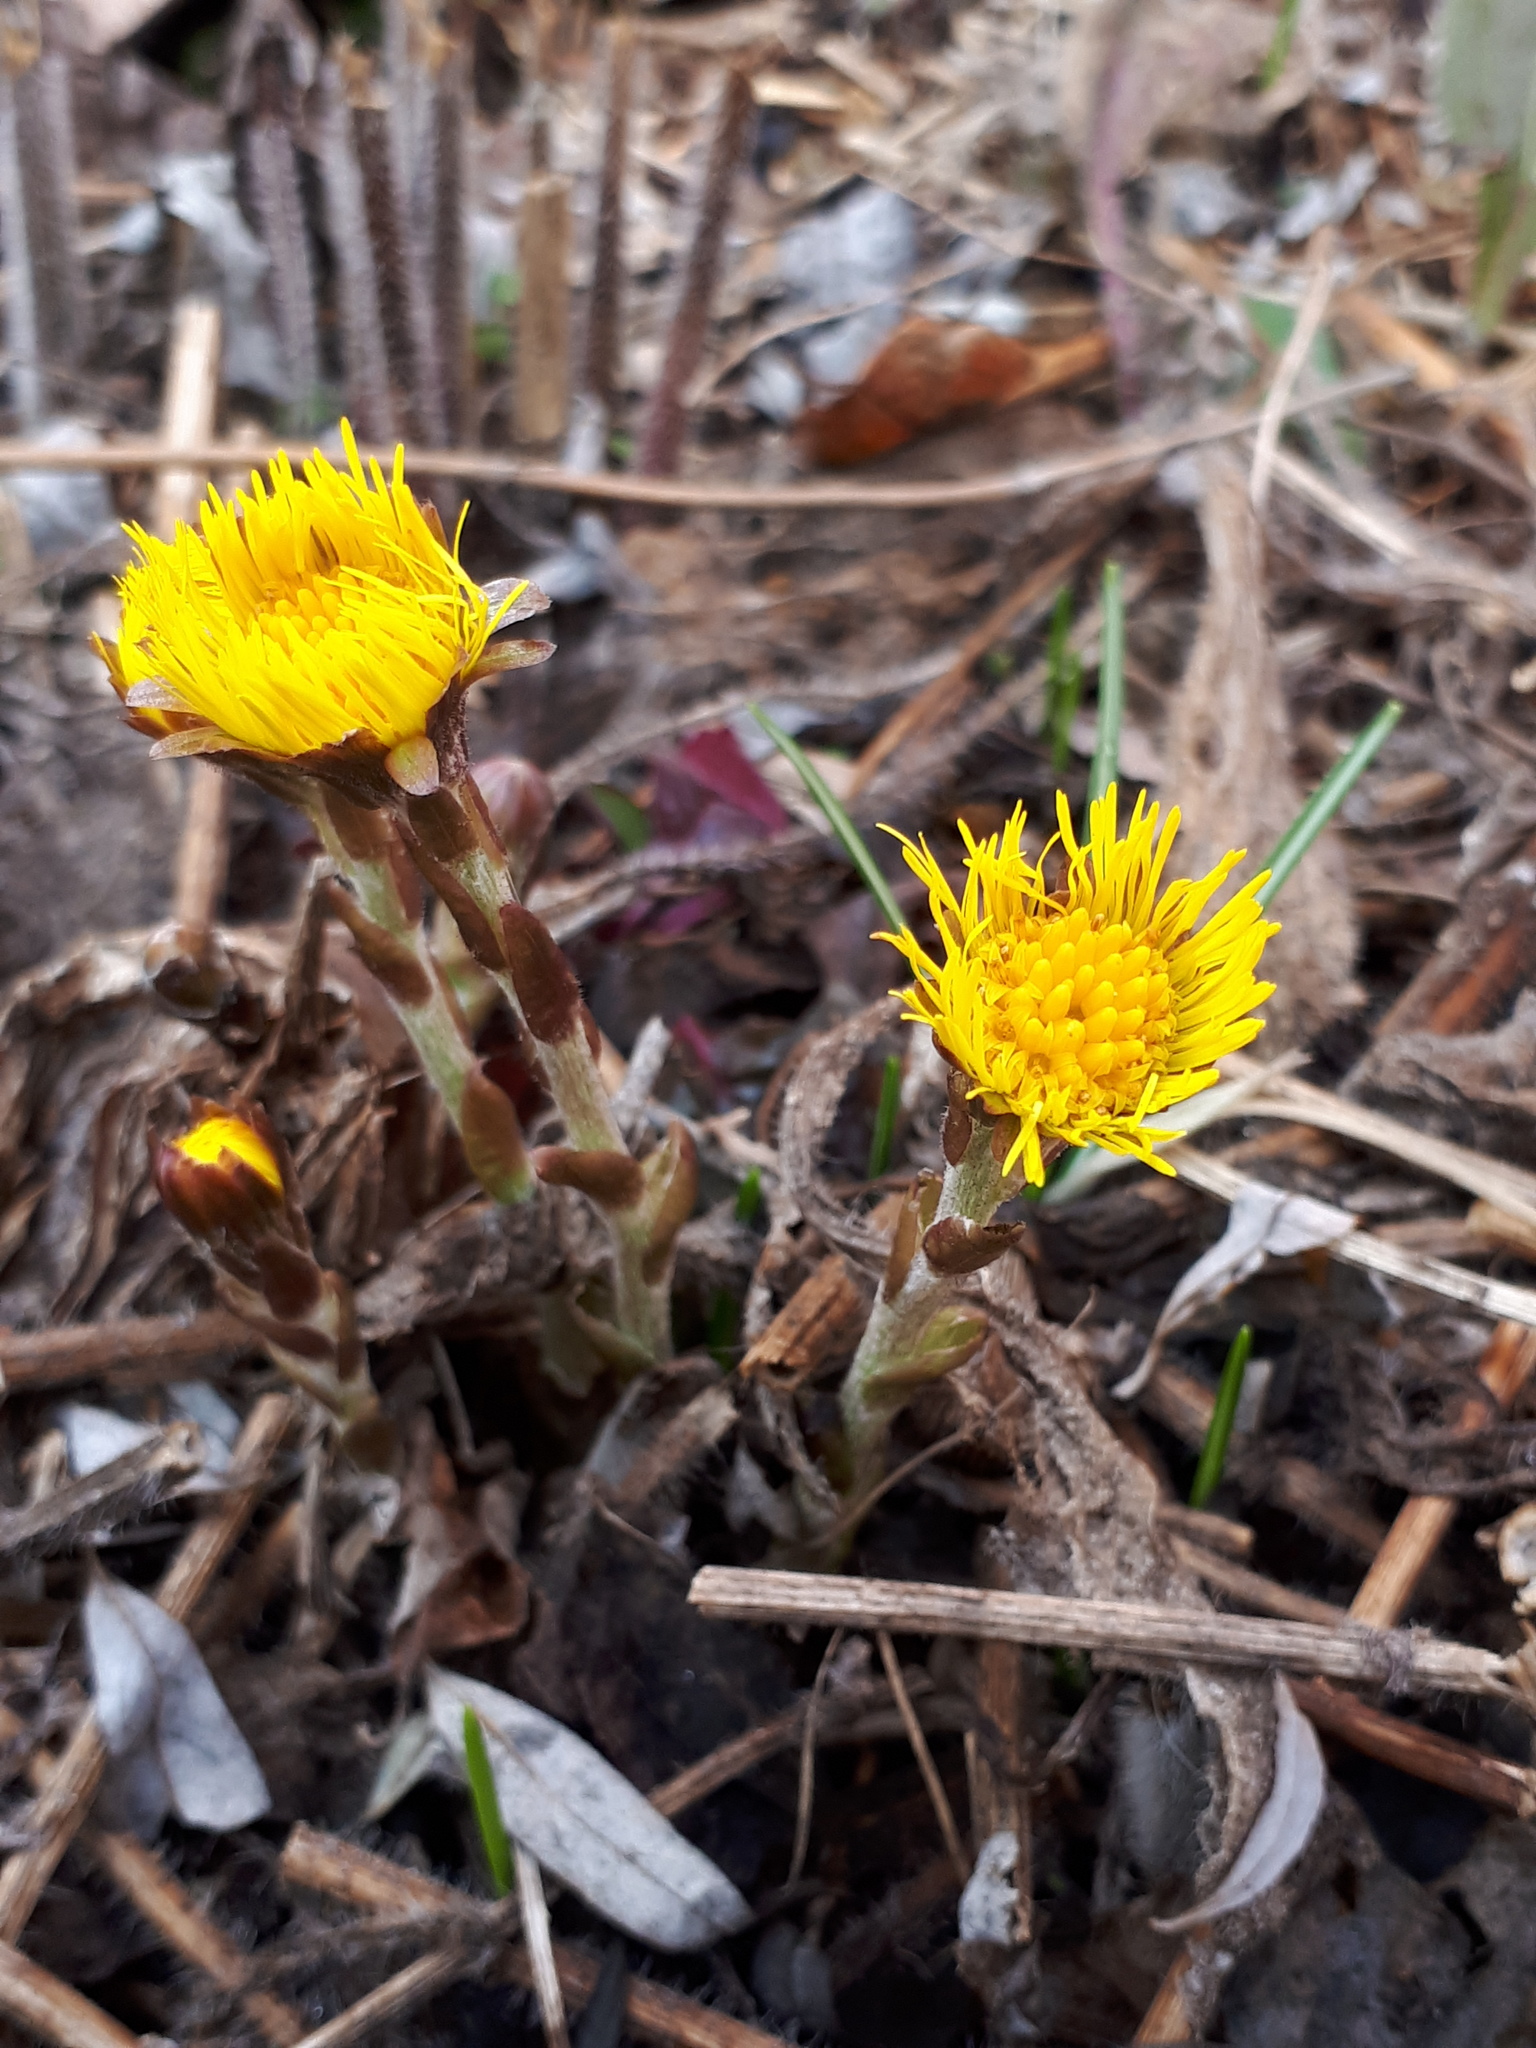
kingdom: Plantae
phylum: Tracheophyta
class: Magnoliopsida
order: Asterales
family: Asteraceae
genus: Tussilago
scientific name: Tussilago farfara
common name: Coltsfoot
